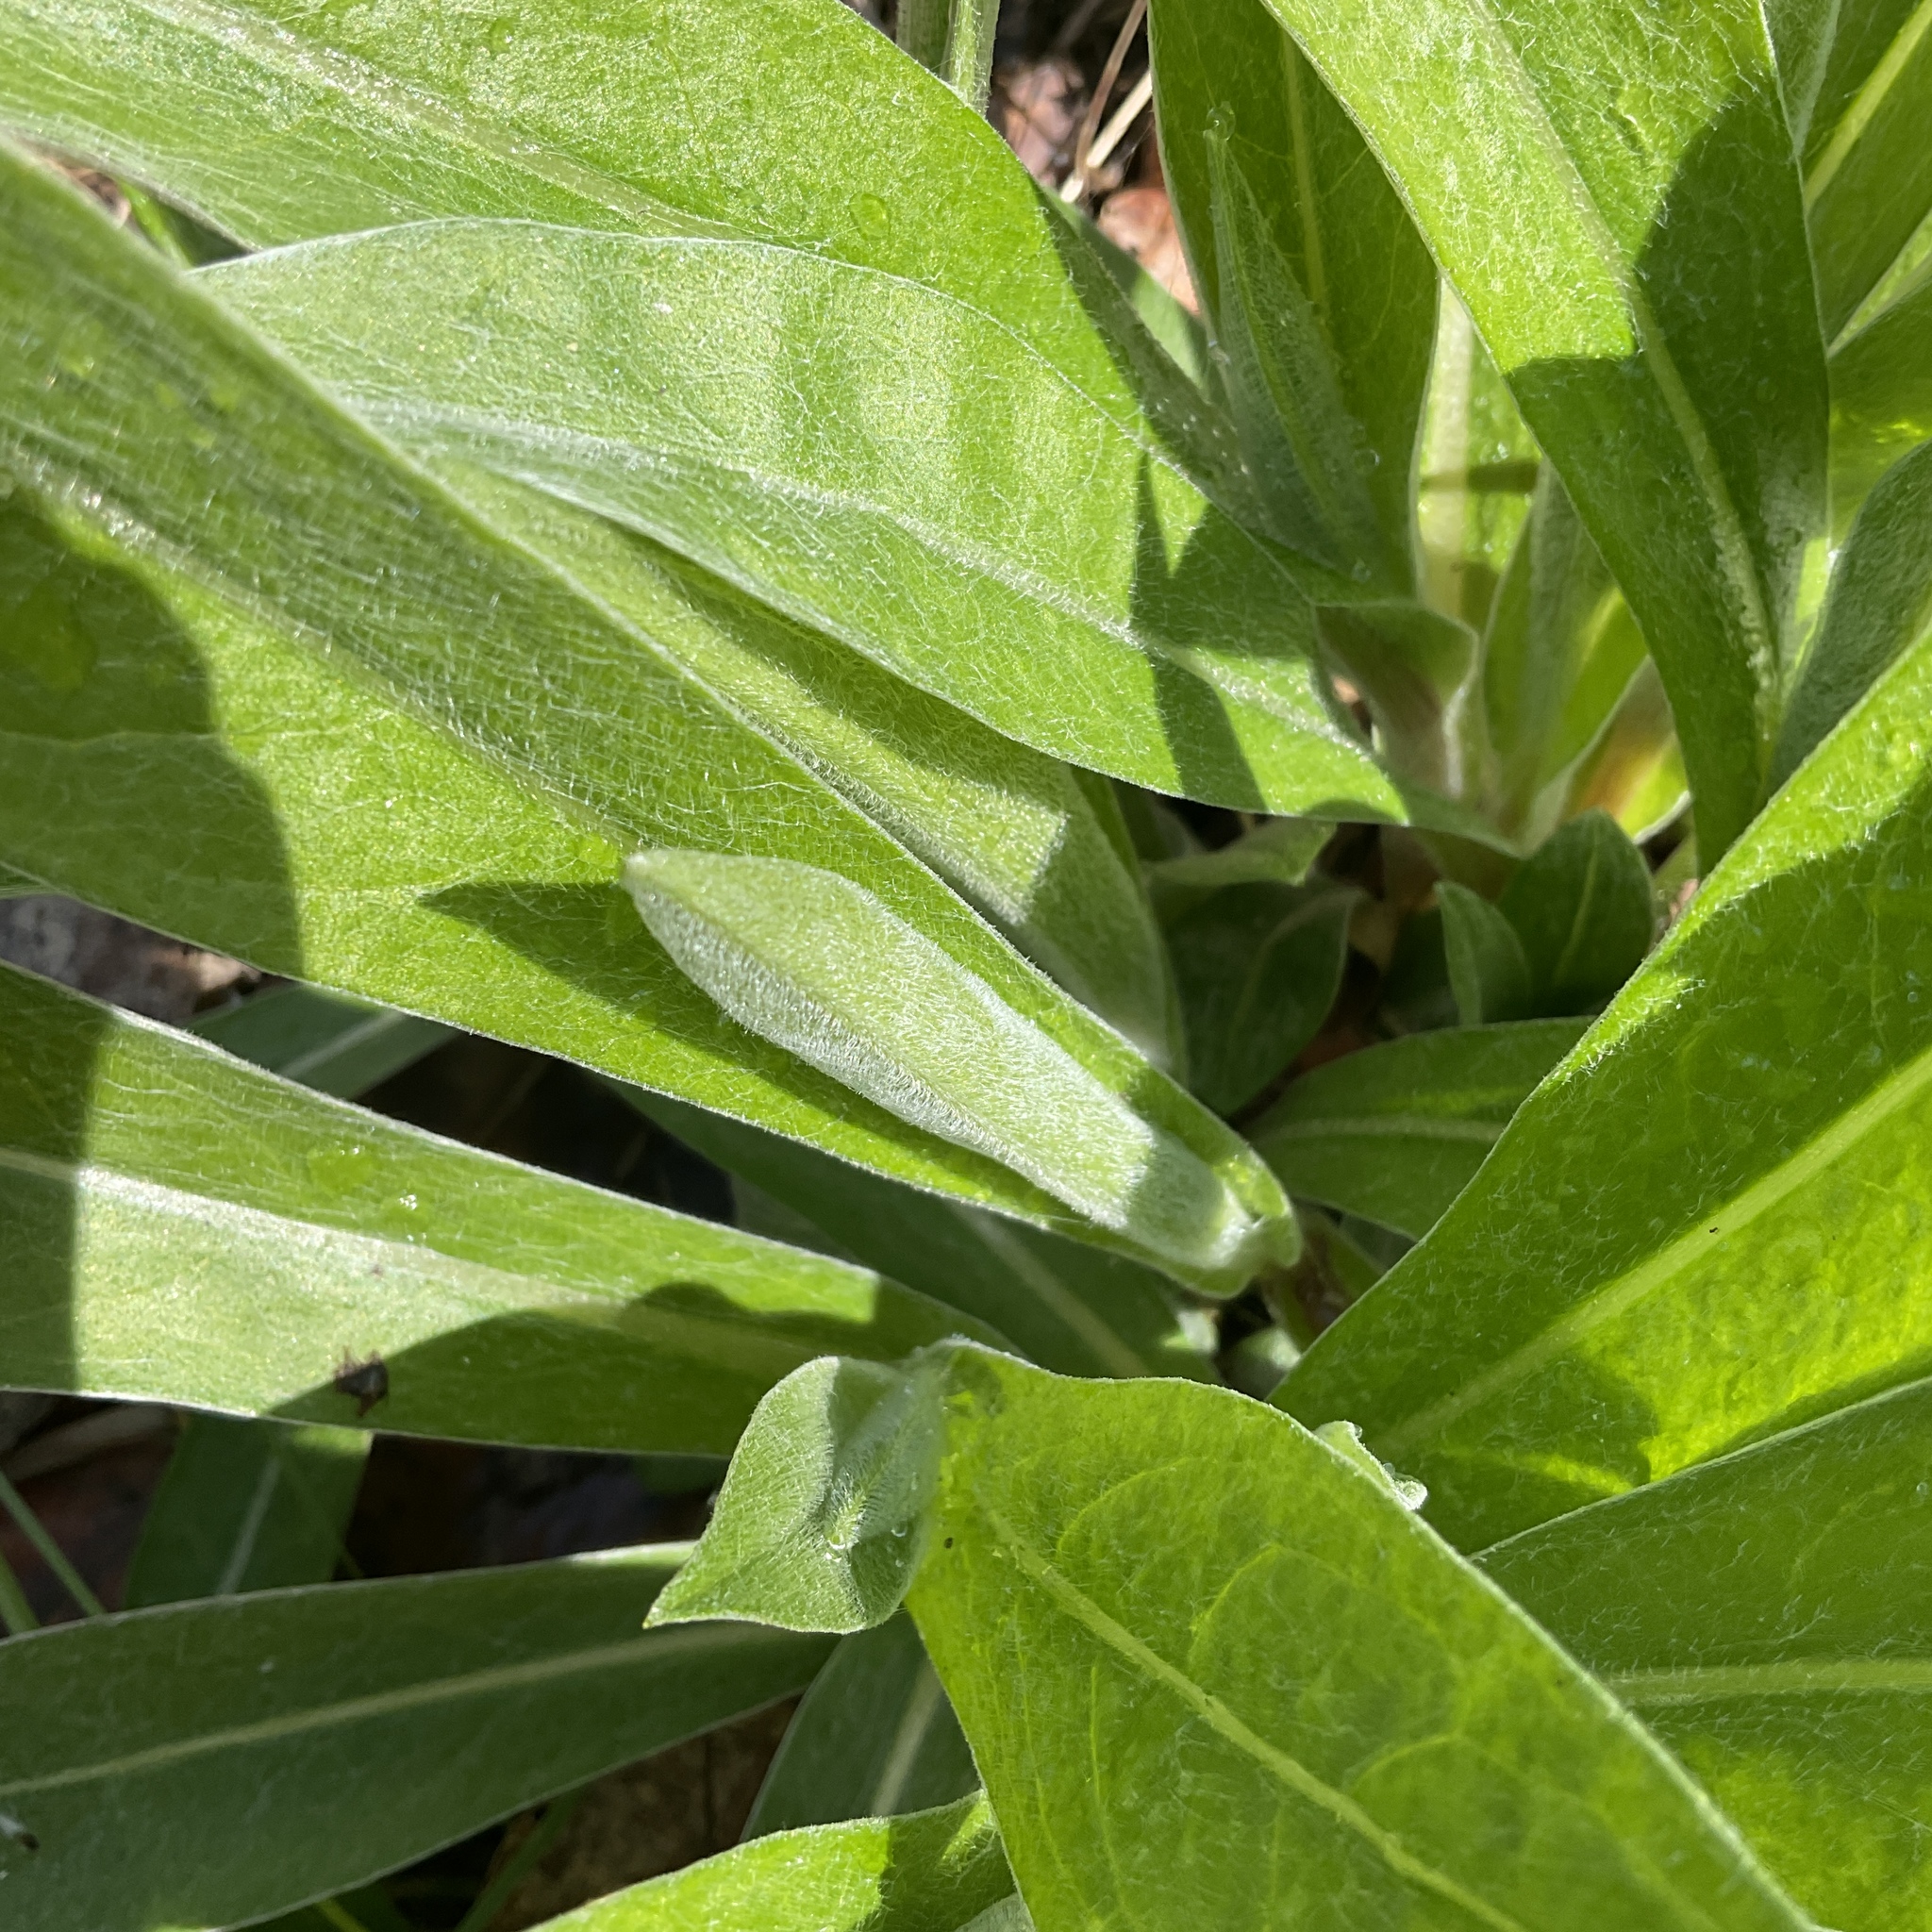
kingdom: Plantae
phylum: Tracheophyta
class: Magnoliopsida
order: Asterales
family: Asteraceae
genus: Centaurea
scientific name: Centaurea montana
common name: Perennial cornflower
